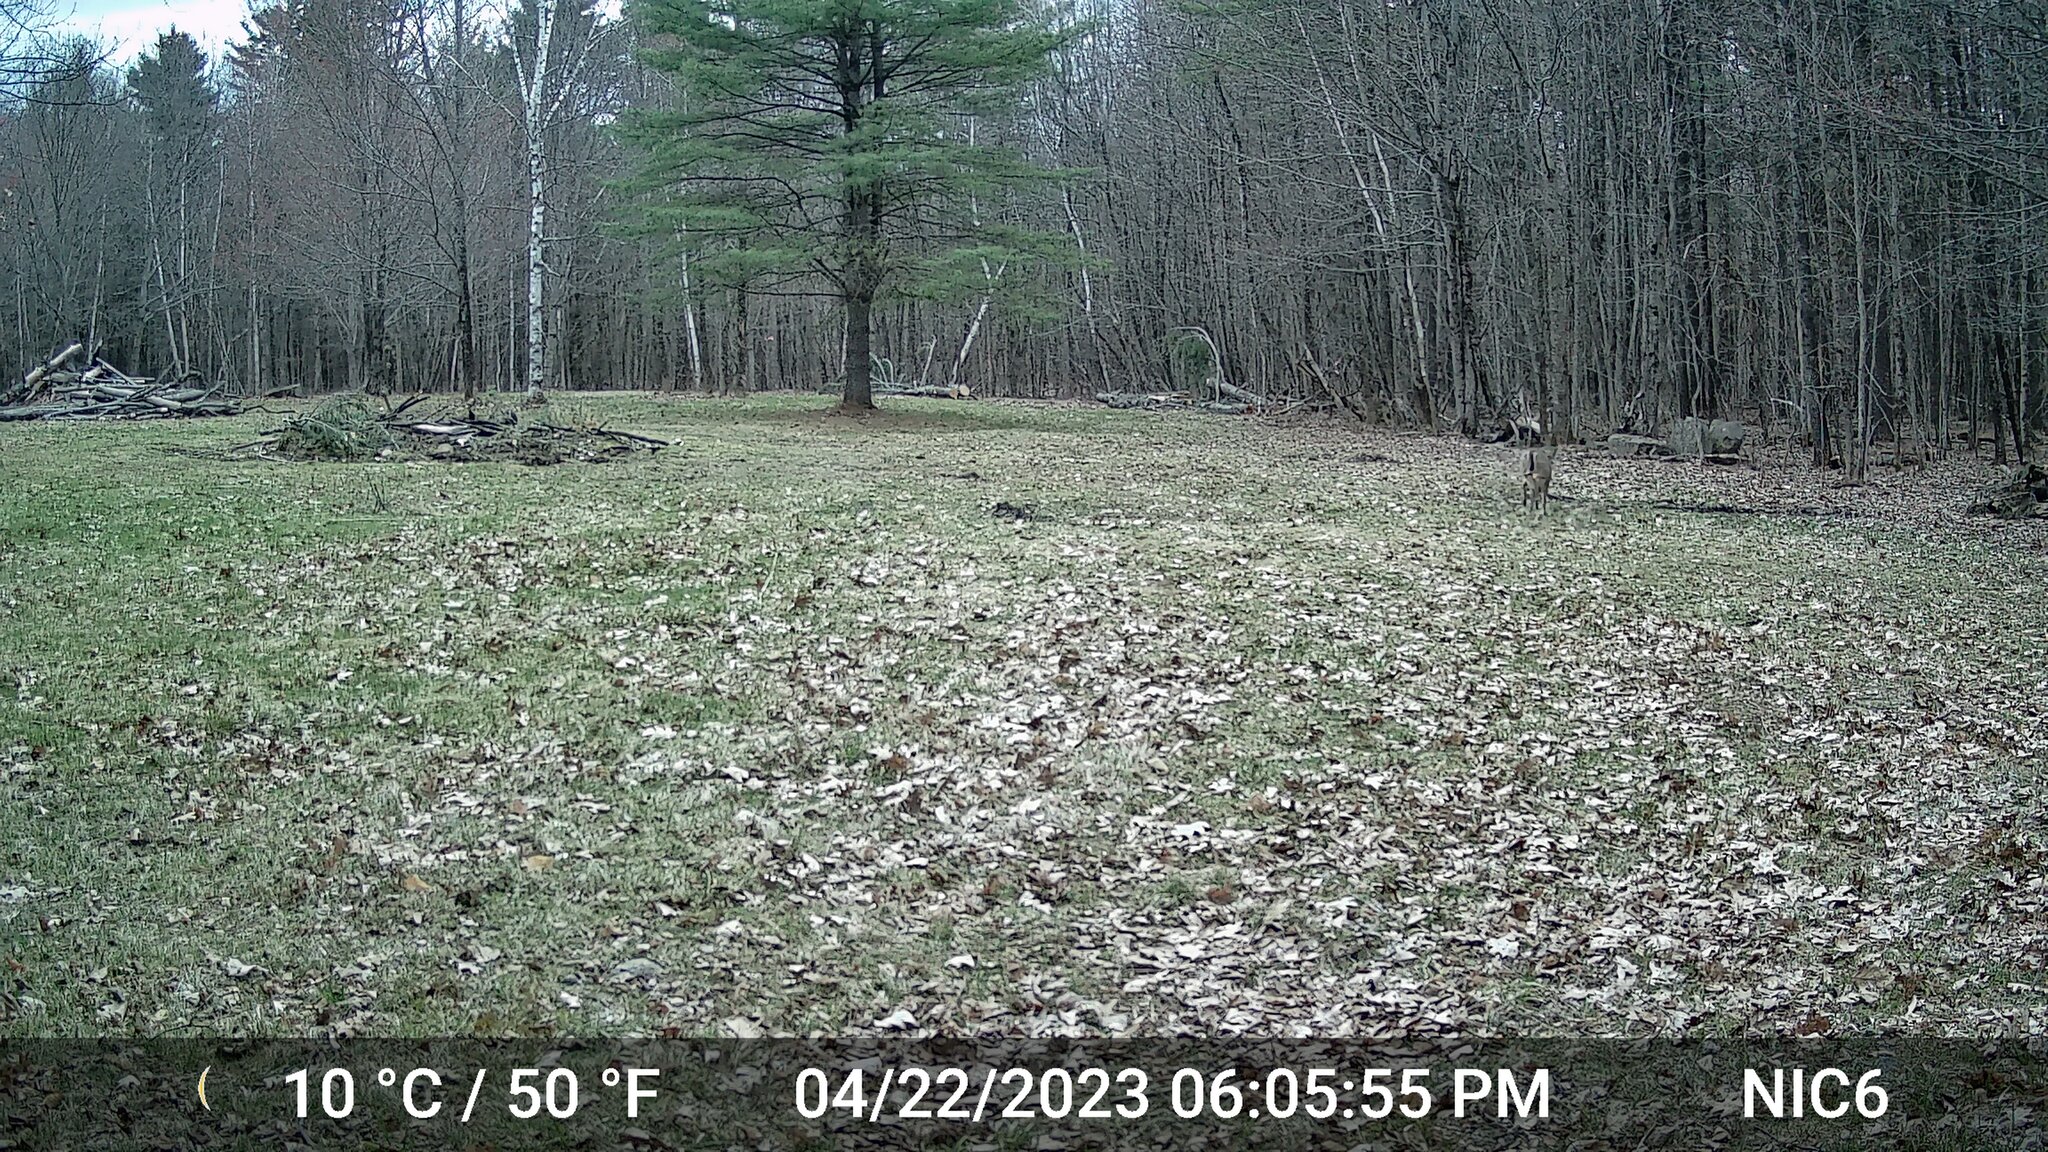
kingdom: Animalia
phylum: Chordata
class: Mammalia
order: Artiodactyla
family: Cervidae
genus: Odocoileus
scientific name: Odocoileus virginianus
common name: White-tailed deer
